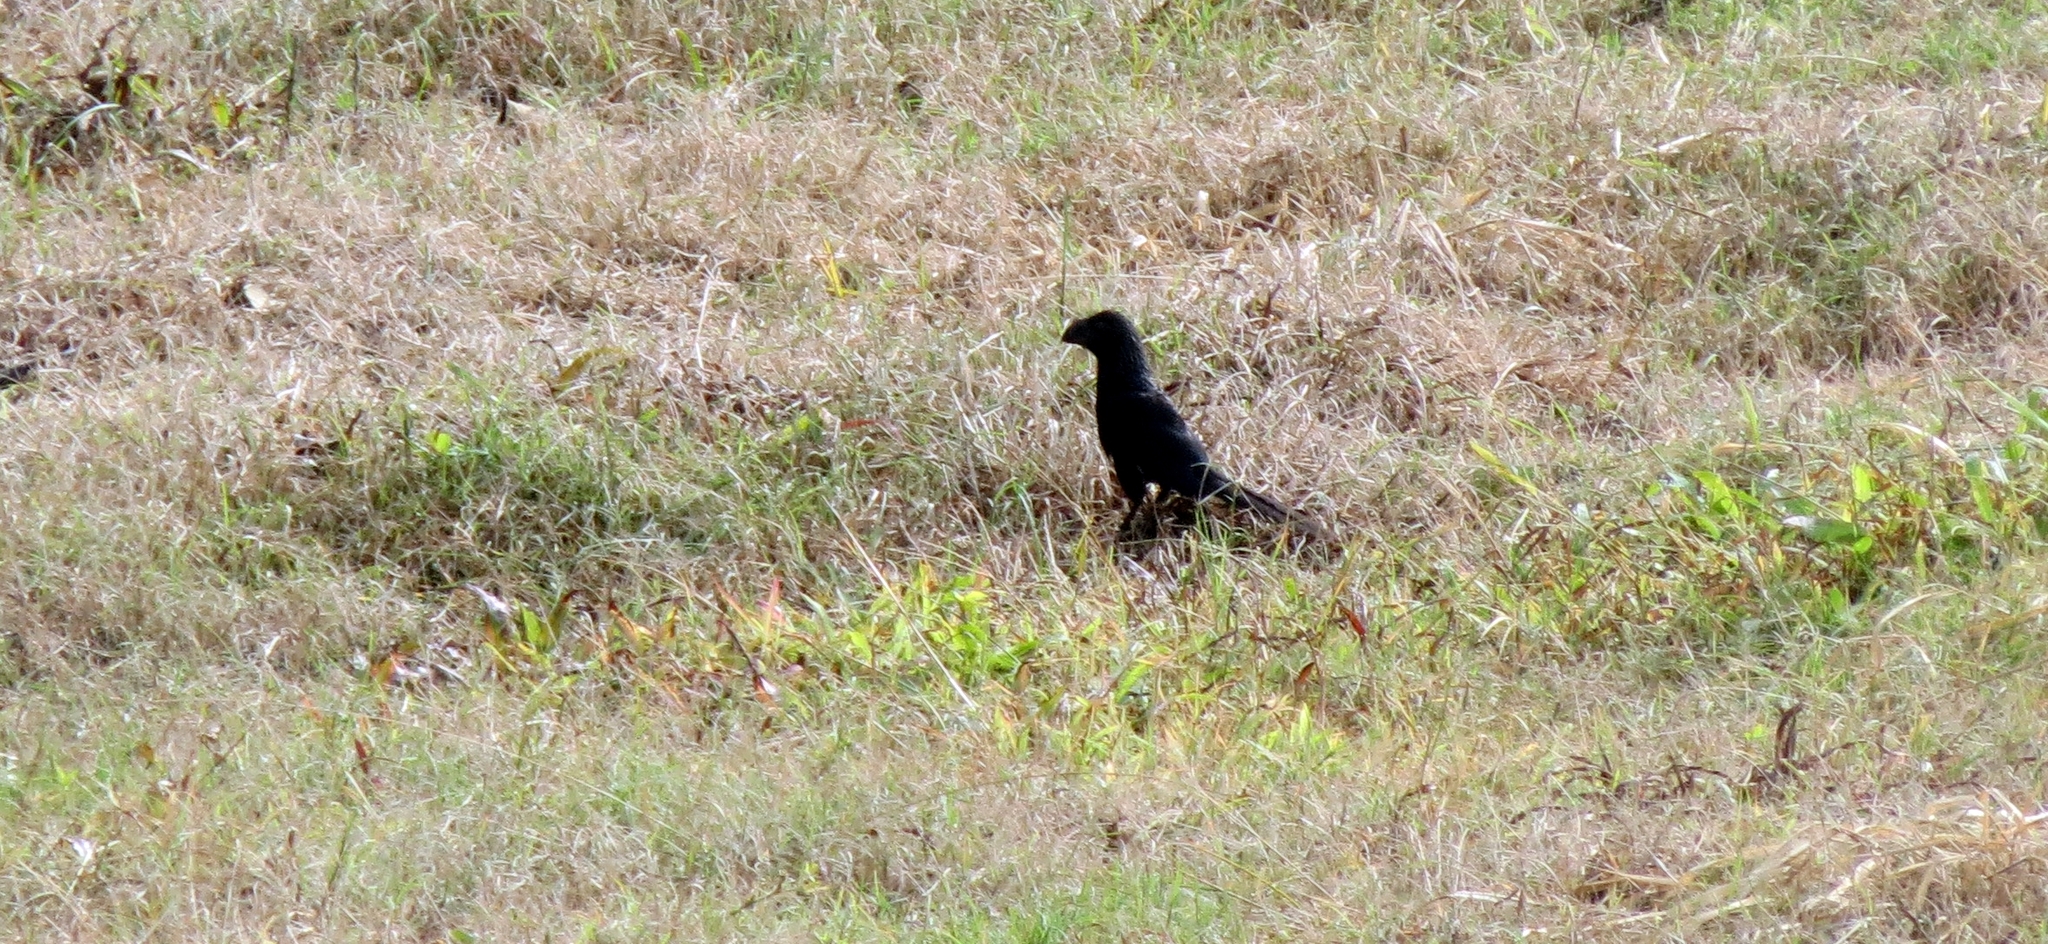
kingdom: Animalia
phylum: Chordata
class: Aves
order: Cuculiformes
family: Cuculidae
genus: Crotophaga
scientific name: Crotophaga ani
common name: Smooth-billed ani
